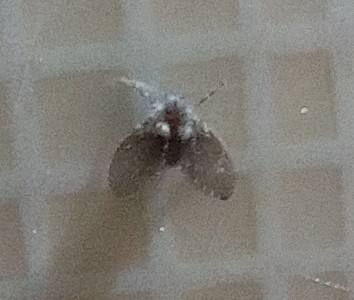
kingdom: Animalia
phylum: Arthropoda
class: Insecta
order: Diptera
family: Psychodidae
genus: Clogmia
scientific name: Clogmia albipunctatus
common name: White-spotted moth fly
